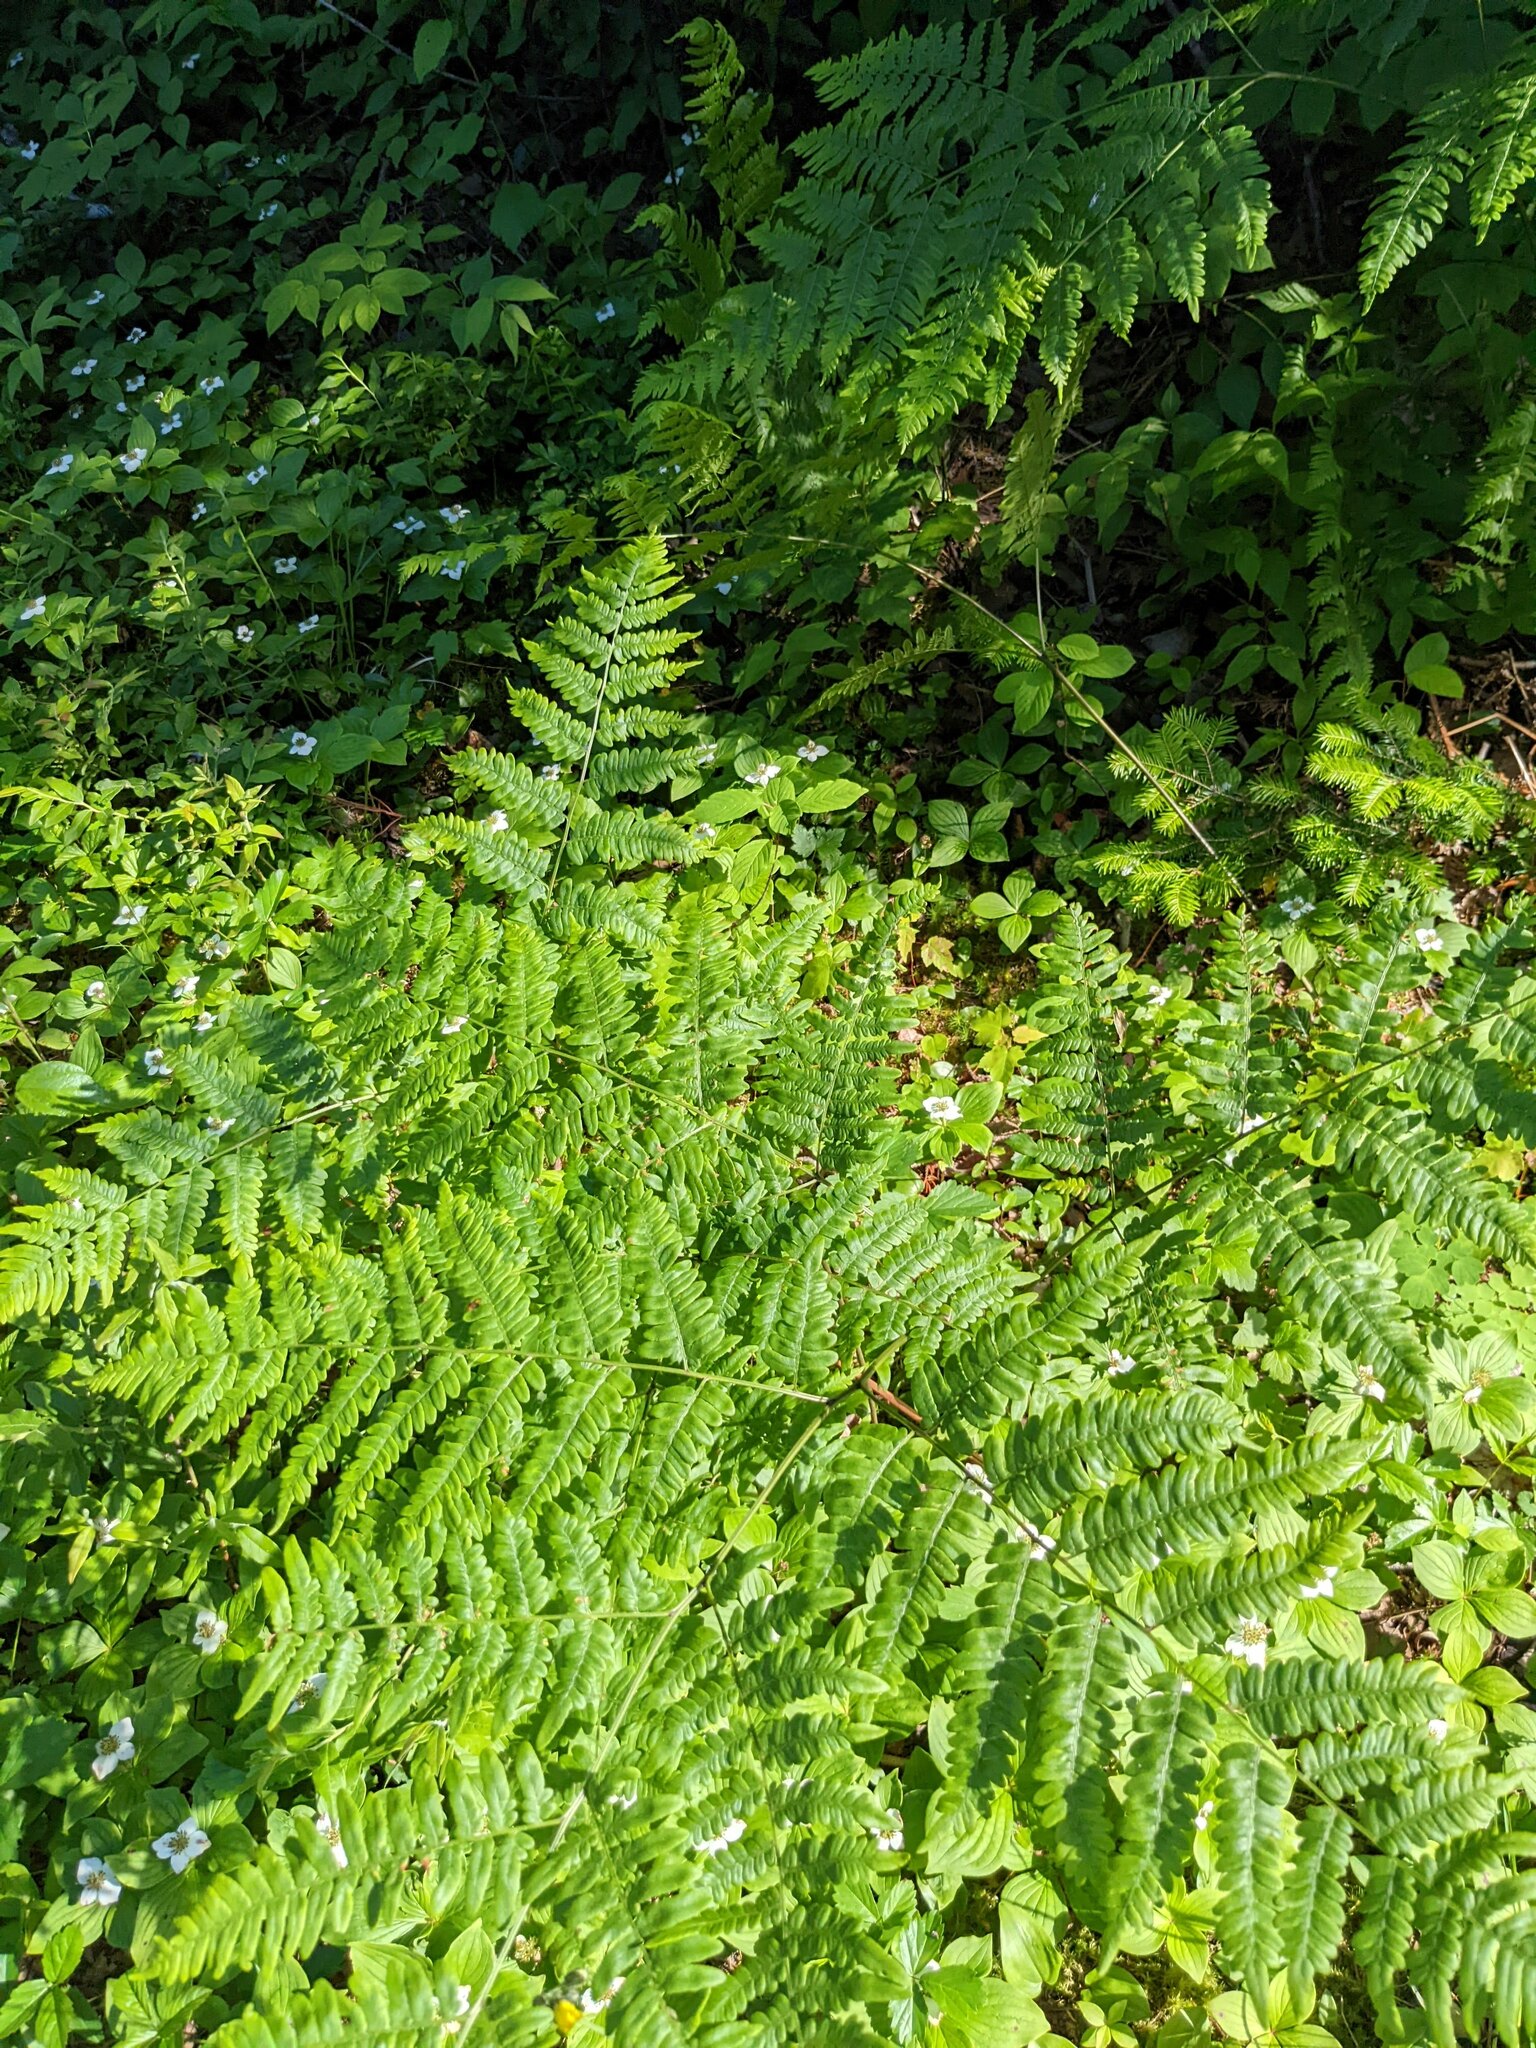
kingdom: Plantae
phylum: Tracheophyta
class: Polypodiopsida
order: Polypodiales
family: Dennstaedtiaceae
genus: Pteridium
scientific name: Pteridium aquilinum
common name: Bracken
